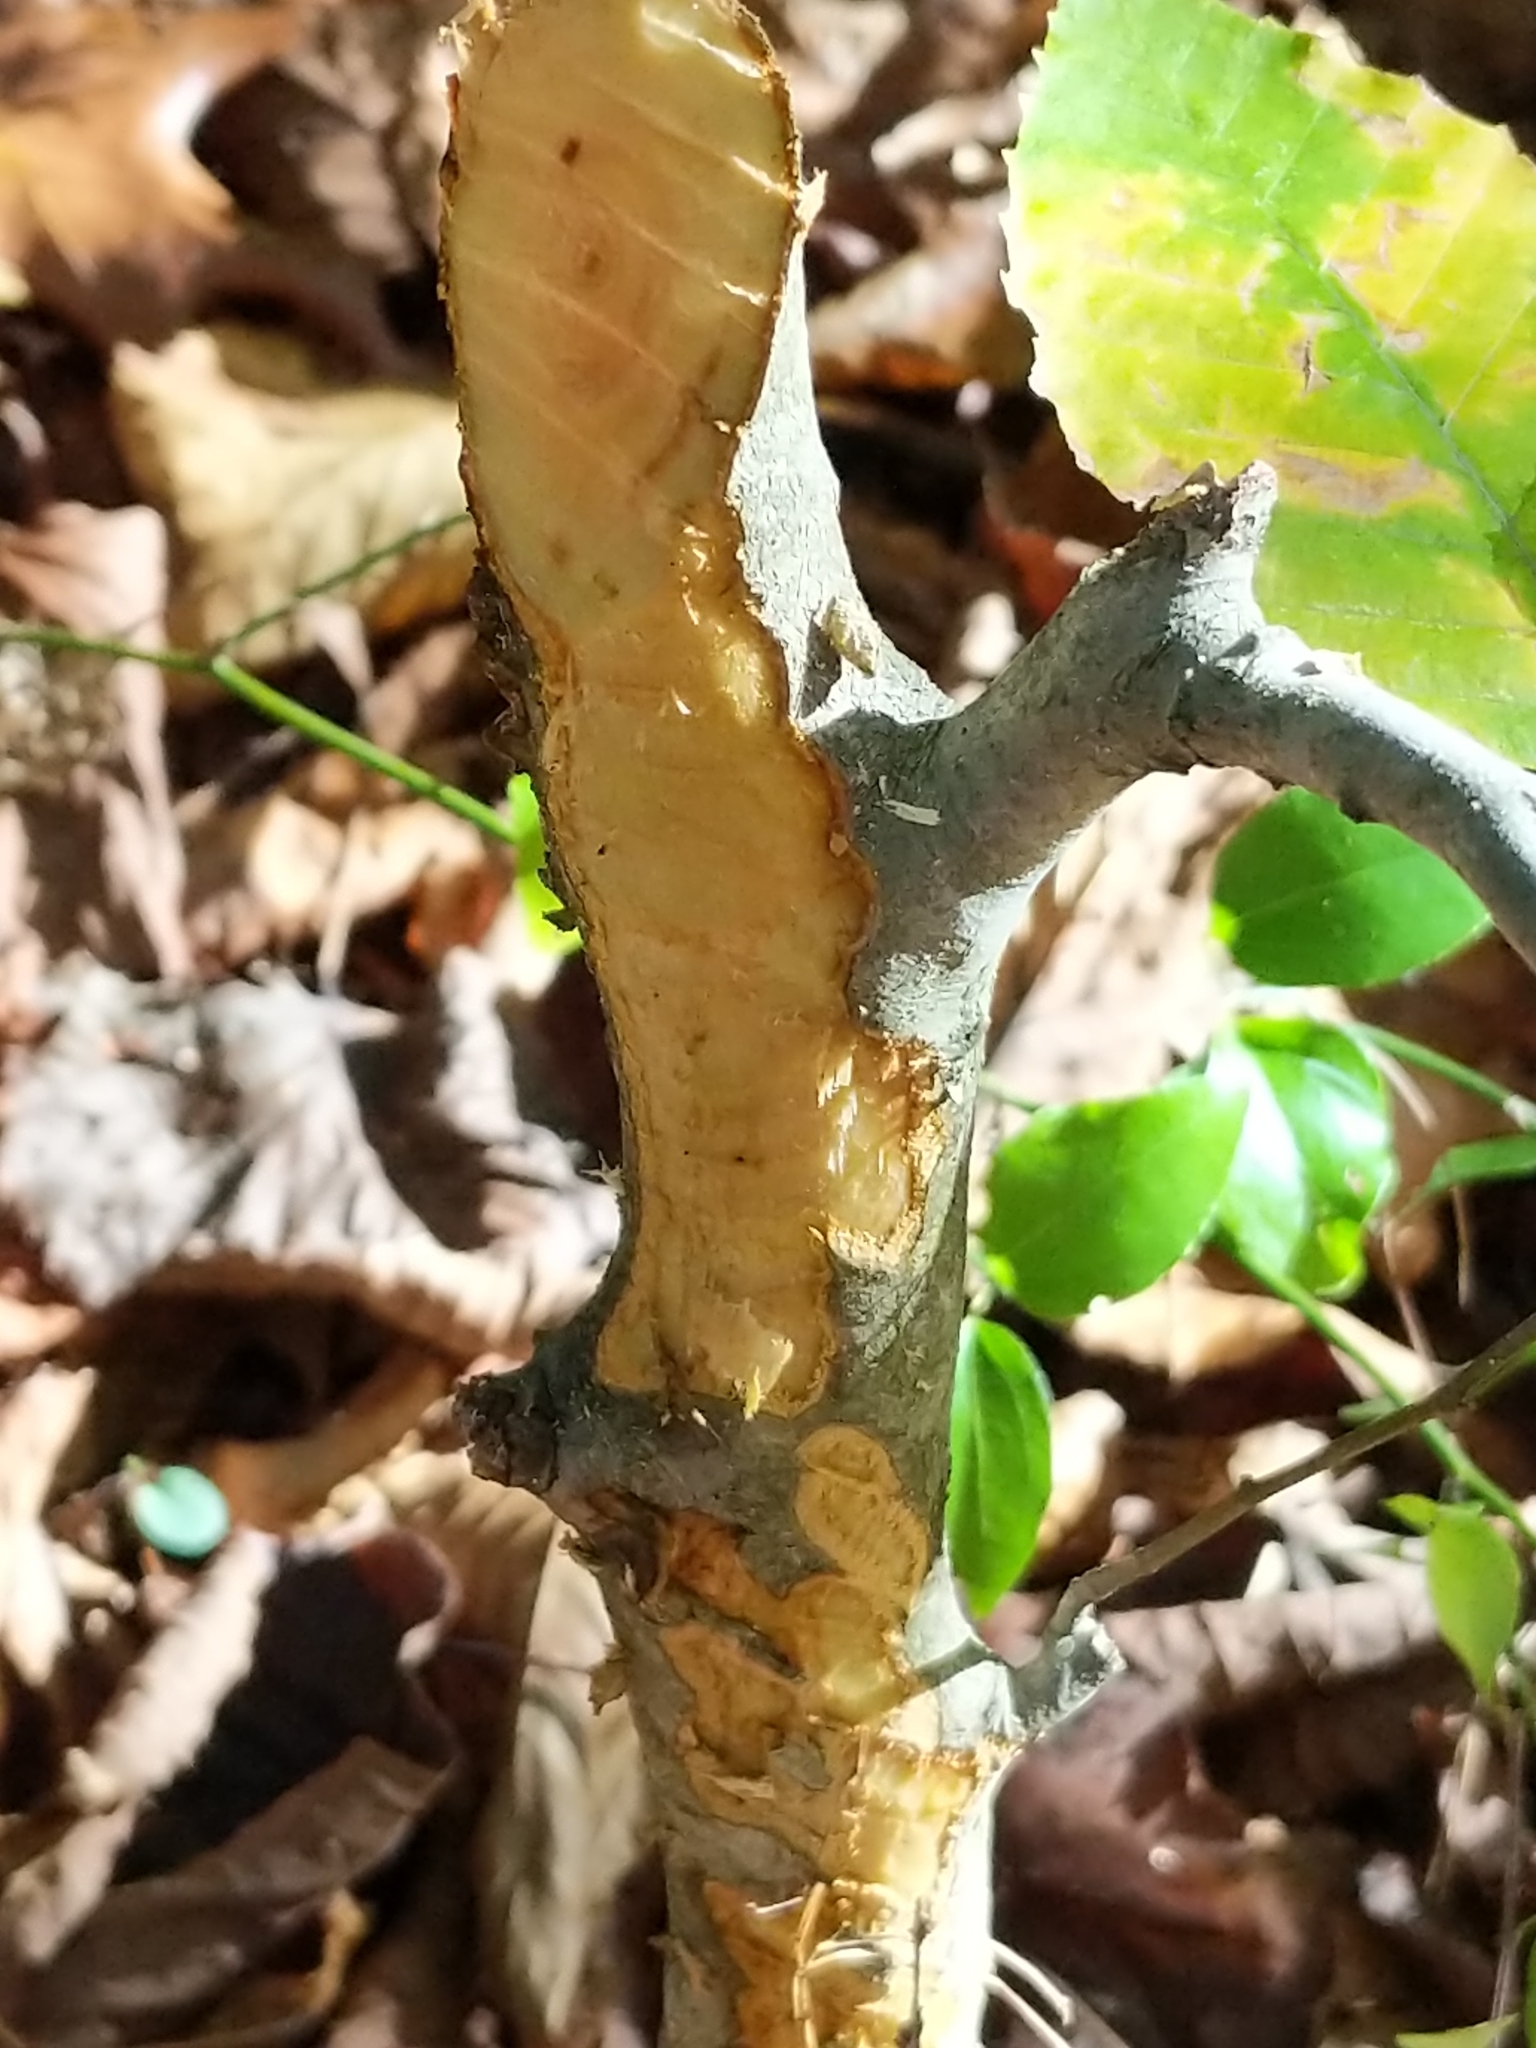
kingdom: Animalia
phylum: Chordata
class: Mammalia
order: Rodentia
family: Castoridae
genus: Castor
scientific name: Castor canadensis
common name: American beaver
